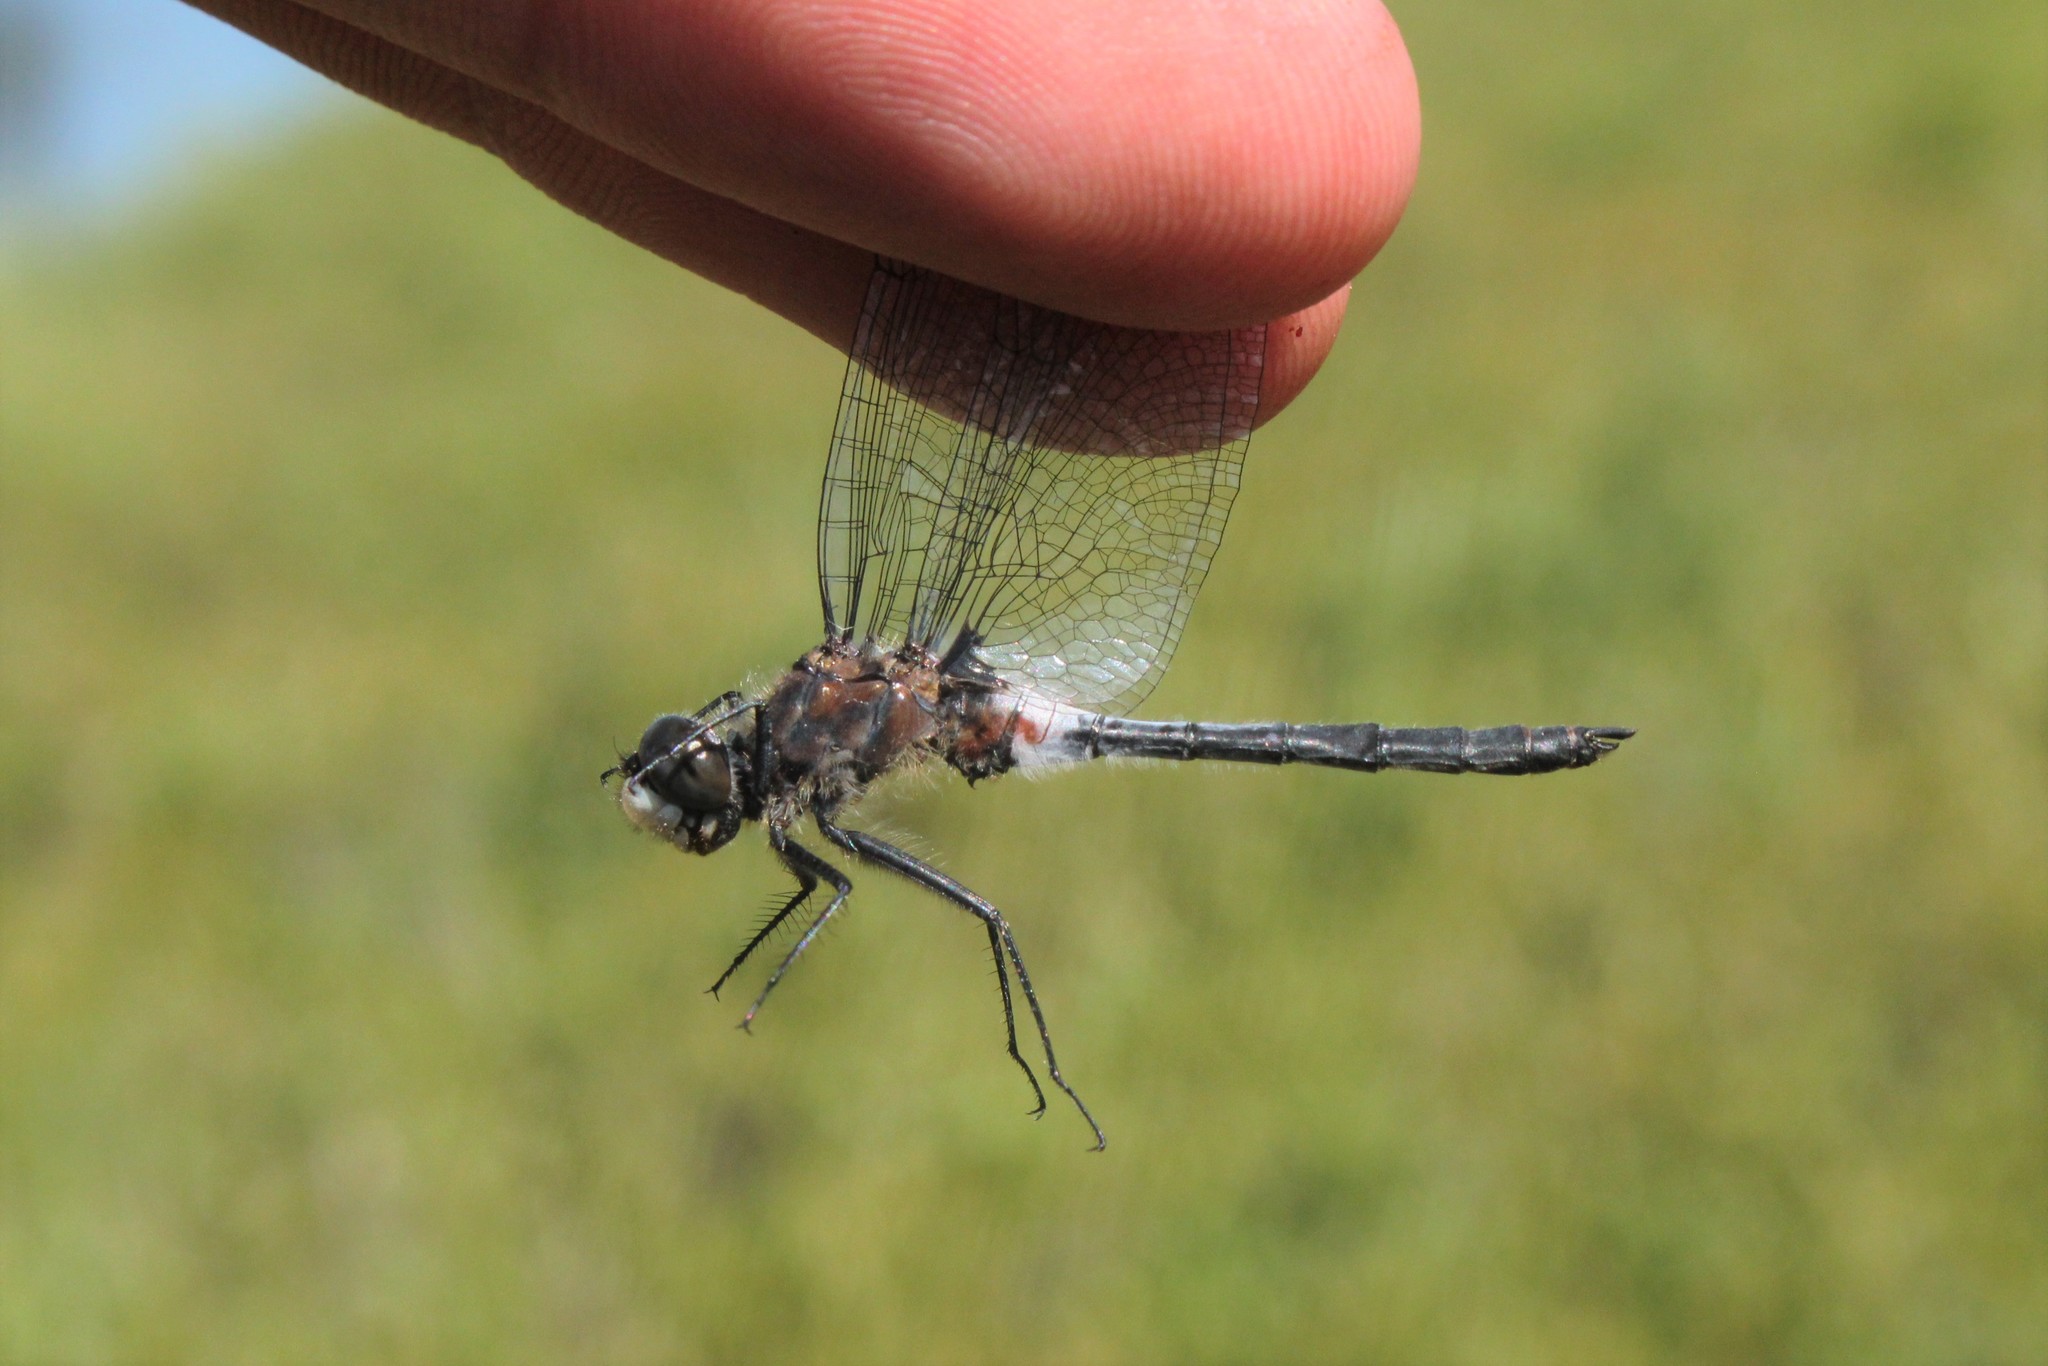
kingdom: Animalia
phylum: Arthropoda
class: Insecta
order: Odonata
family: Libellulidae
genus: Leucorrhinia
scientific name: Leucorrhinia proxima
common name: Belted whiteface
